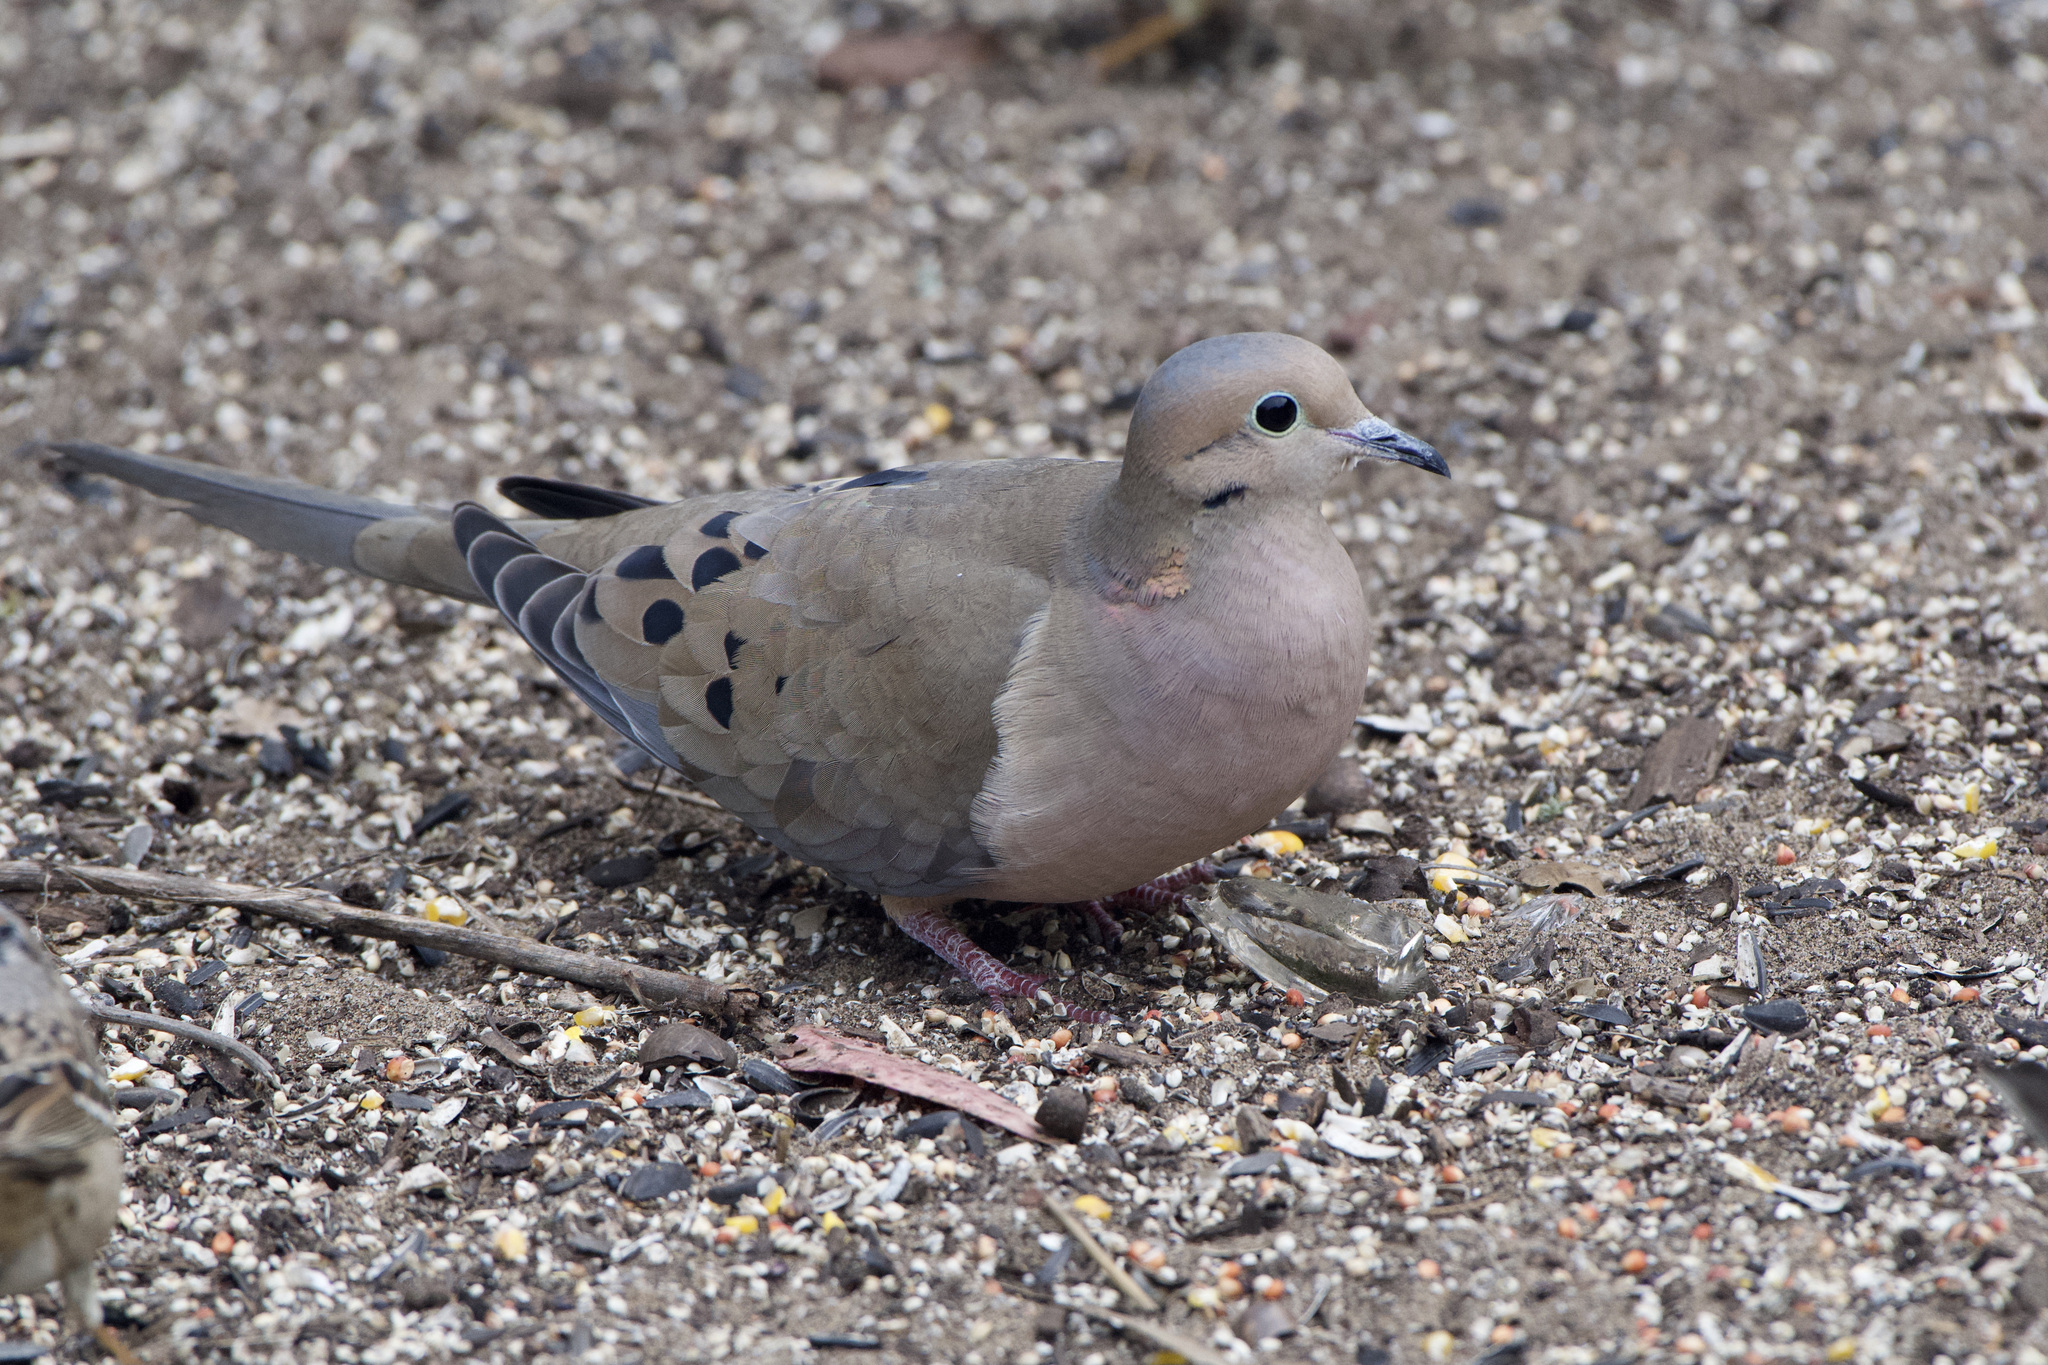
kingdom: Animalia
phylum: Chordata
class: Aves
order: Columbiformes
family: Columbidae
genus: Zenaida
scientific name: Zenaida macroura
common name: Mourning dove
